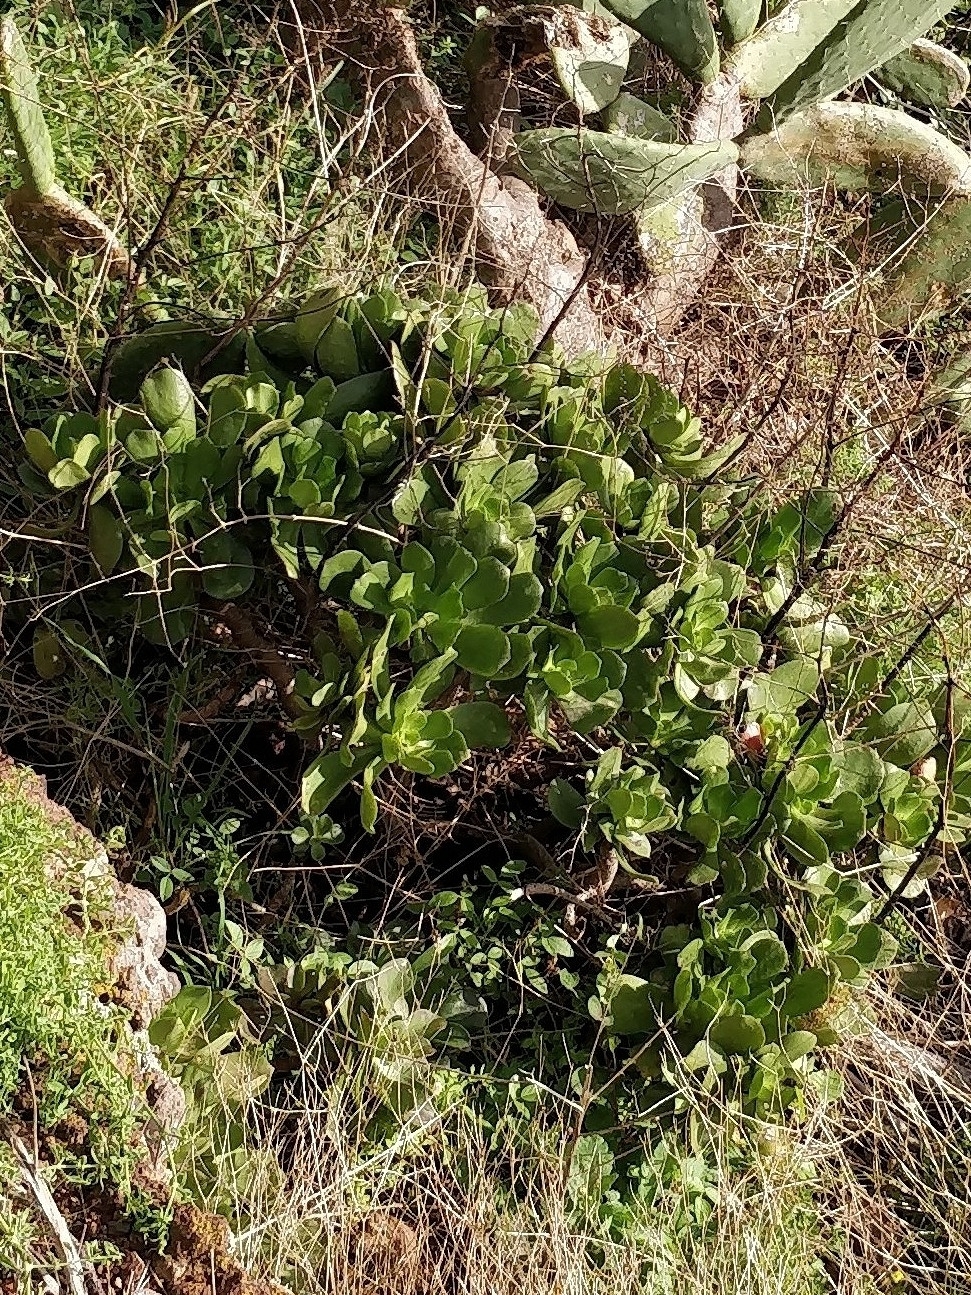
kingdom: Plantae
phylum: Tracheophyta
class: Magnoliopsida
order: Saxifragales
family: Crassulaceae
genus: Aeonium
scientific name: Aeonium glutinosum
